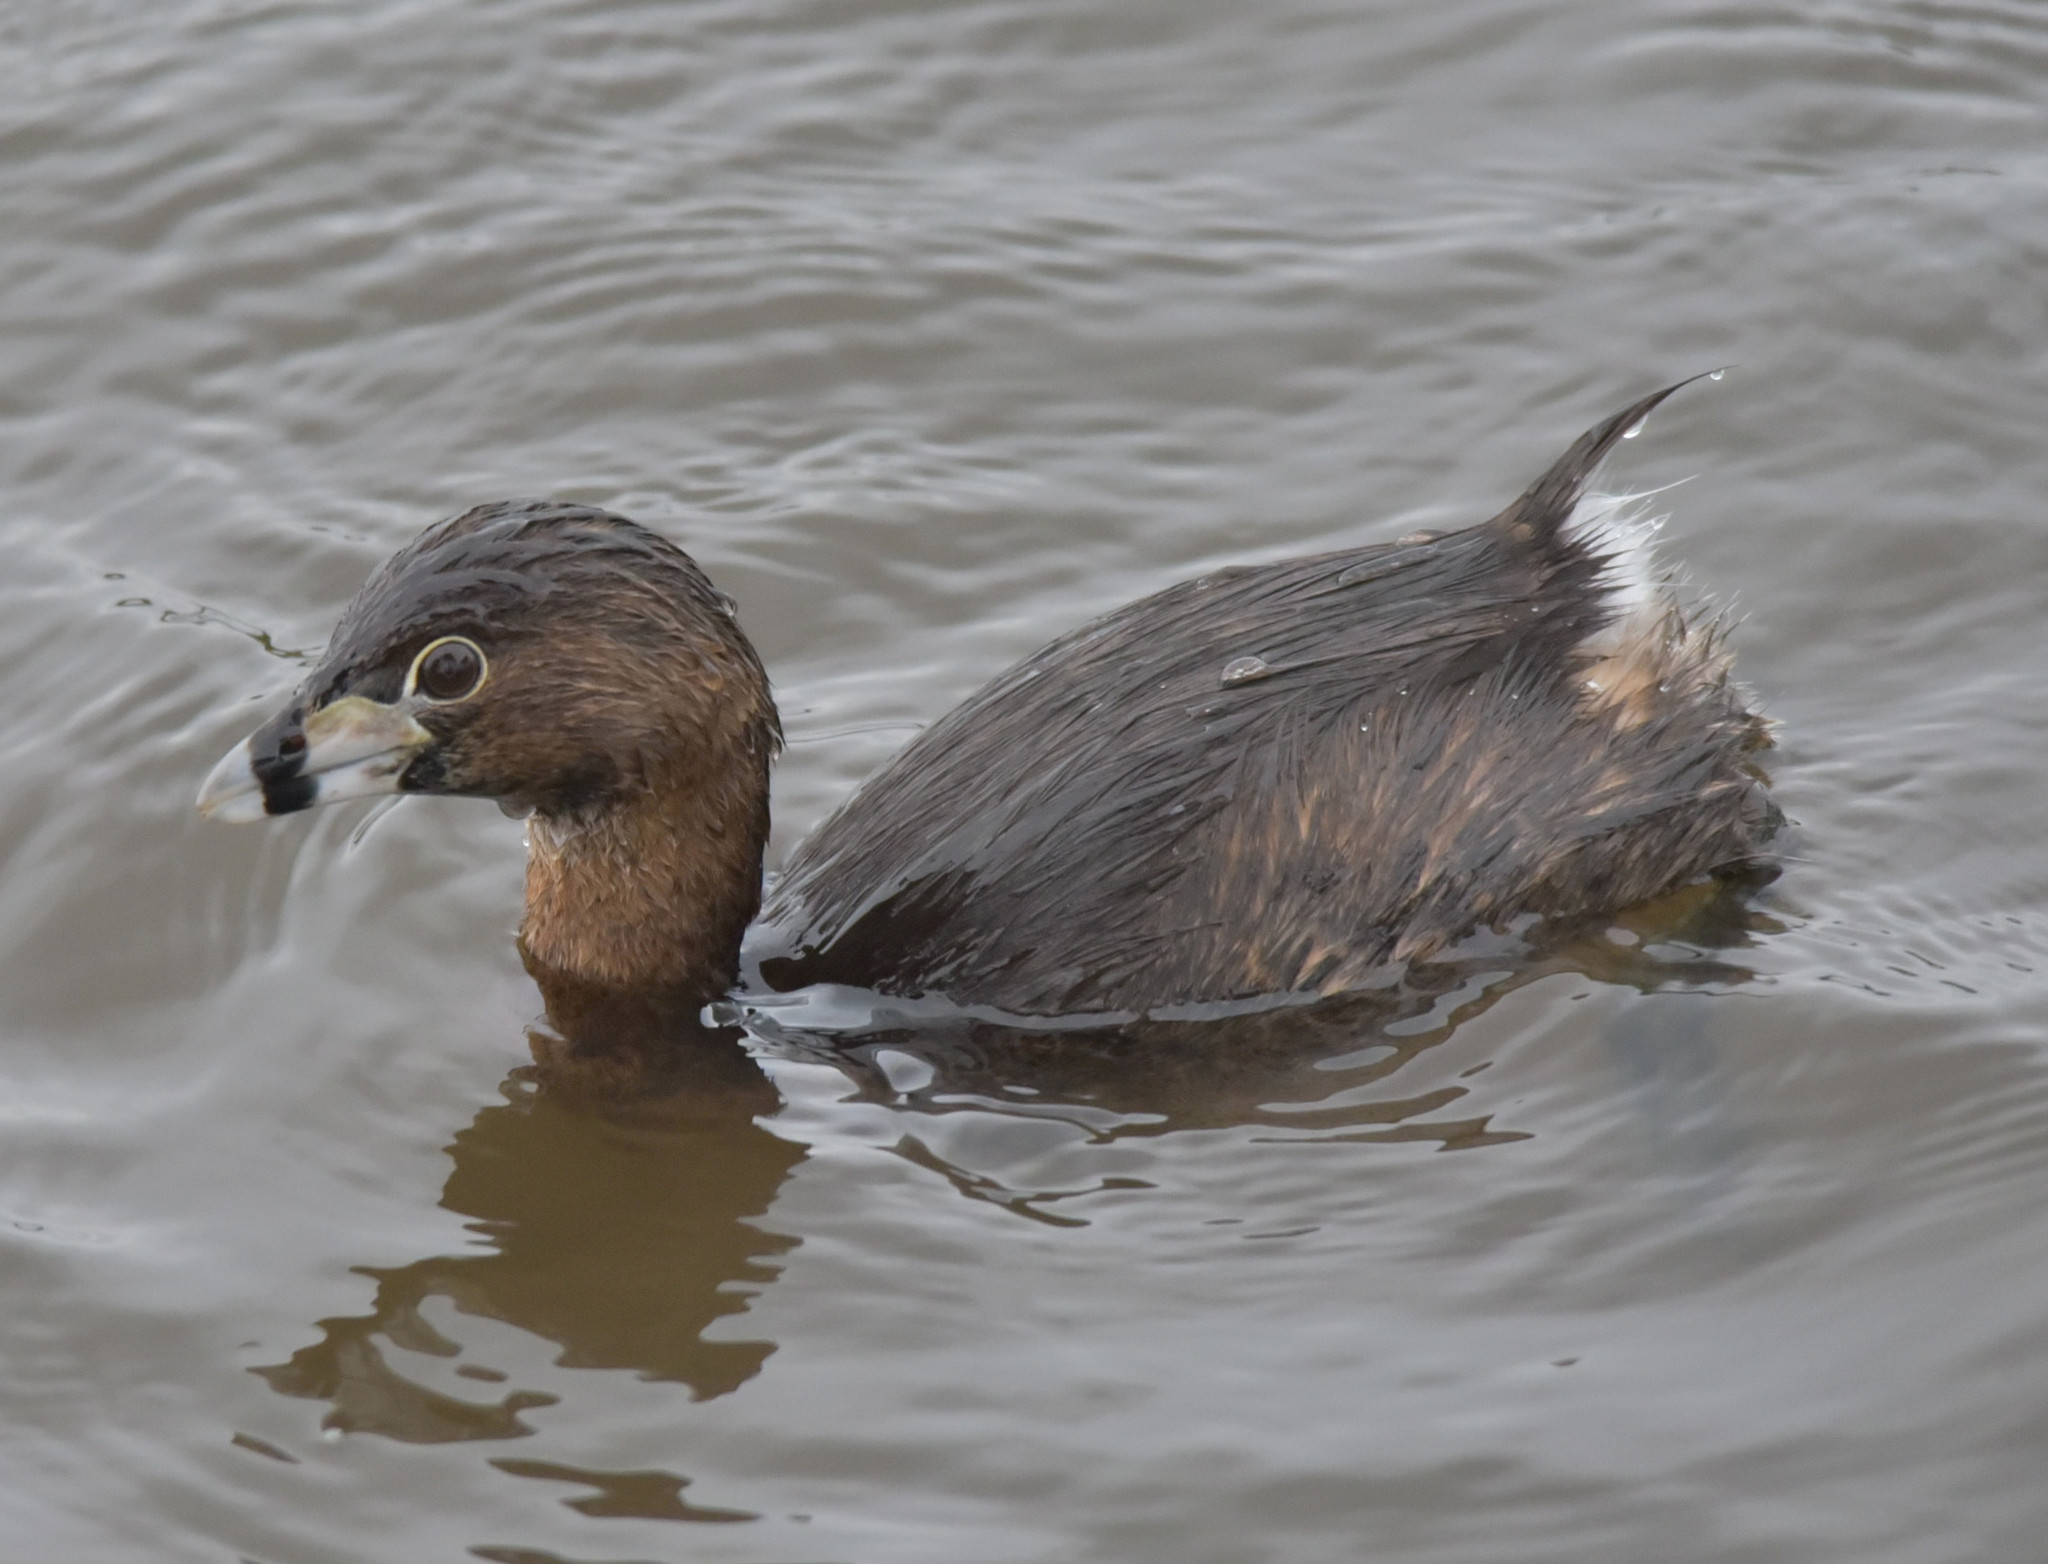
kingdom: Animalia
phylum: Chordata
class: Aves
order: Podicipediformes
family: Podicipedidae
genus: Podilymbus
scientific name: Podilymbus podiceps
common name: Pied-billed grebe
